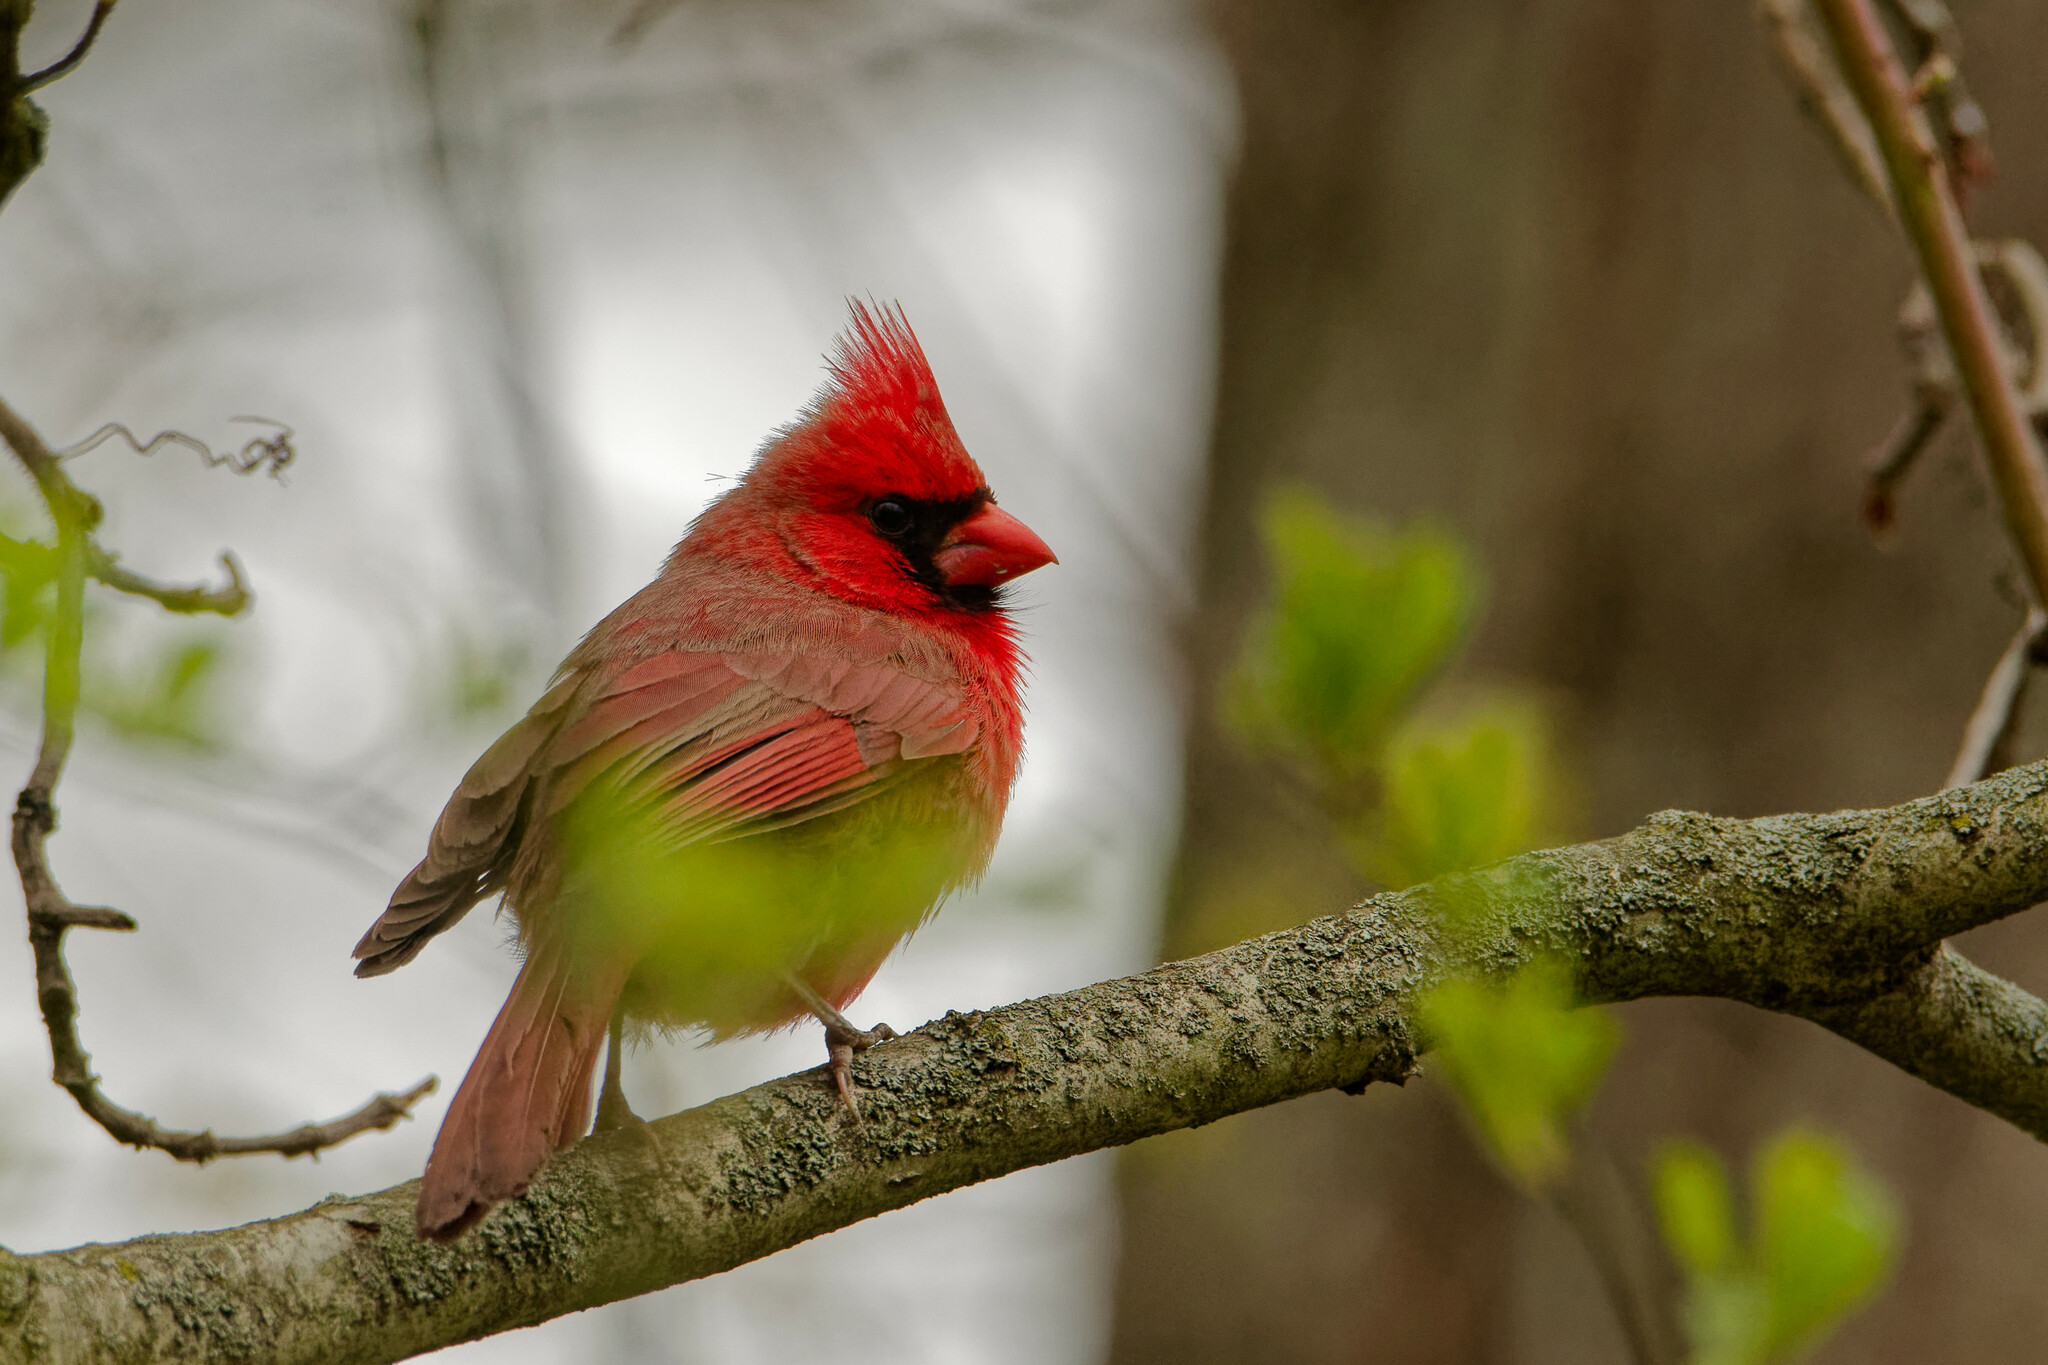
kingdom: Animalia
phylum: Chordata
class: Aves
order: Passeriformes
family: Cardinalidae
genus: Cardinalis
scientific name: Cardinalis cardinalis
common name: Northern cardinal
